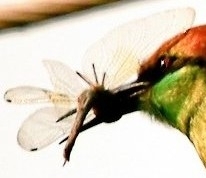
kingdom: Animalia
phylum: Arthropoda
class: Insecta
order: Odonata
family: Libellulidae
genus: Tholymis
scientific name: Tholymis tillarga
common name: Coral-tailed cloud wing
